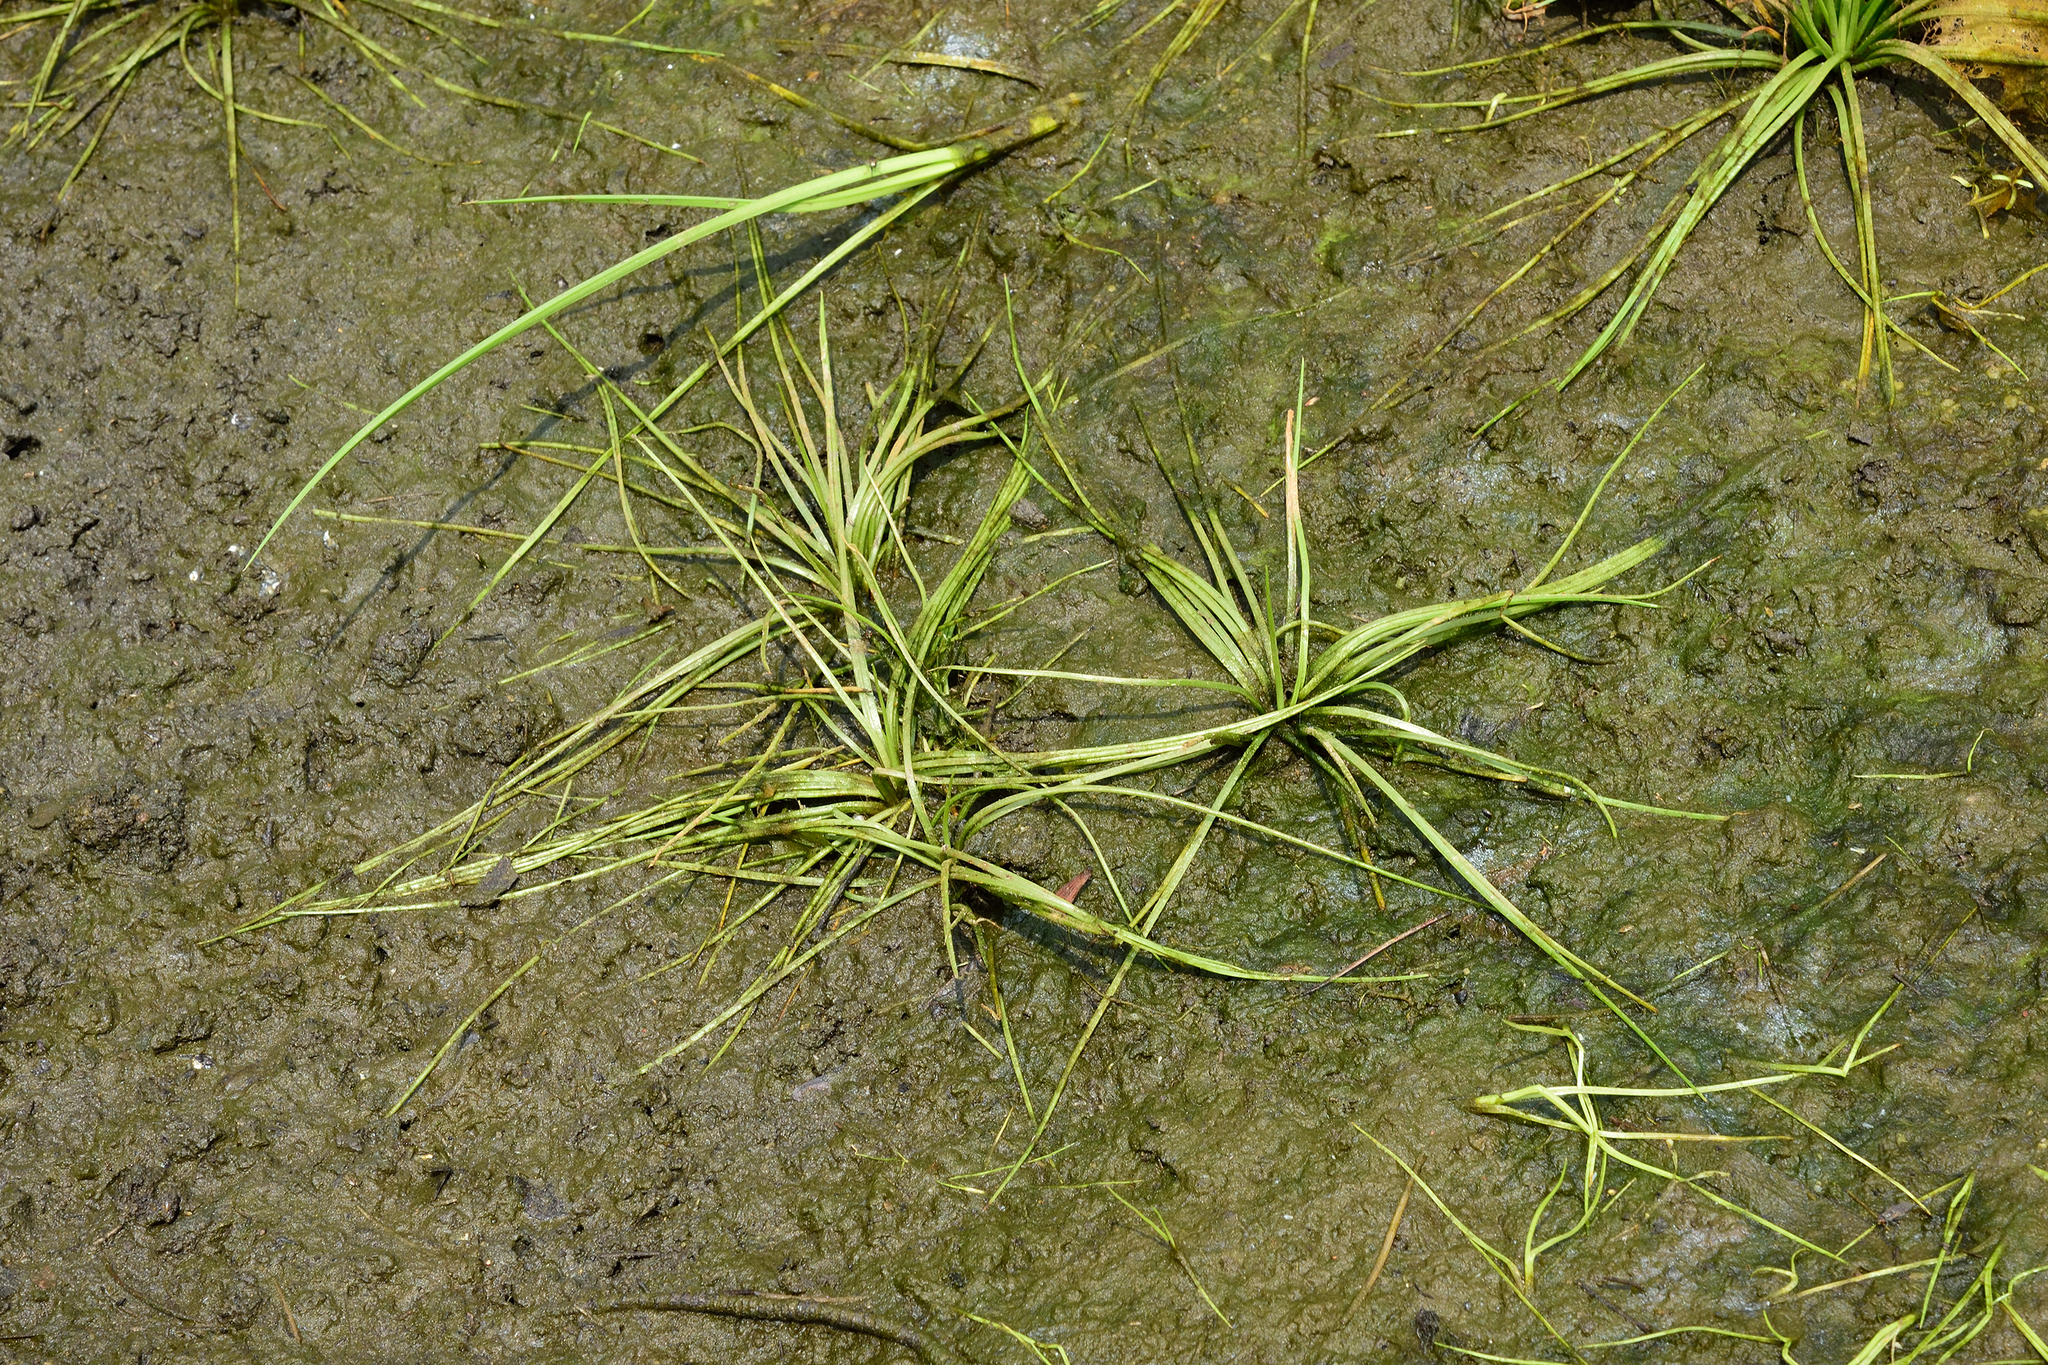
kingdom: Plantae
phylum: Tracheophyta
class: Lycopodiopsida
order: Isoetales
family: Isoetaceae
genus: Isoetes
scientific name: Isoetes taiwanensis
